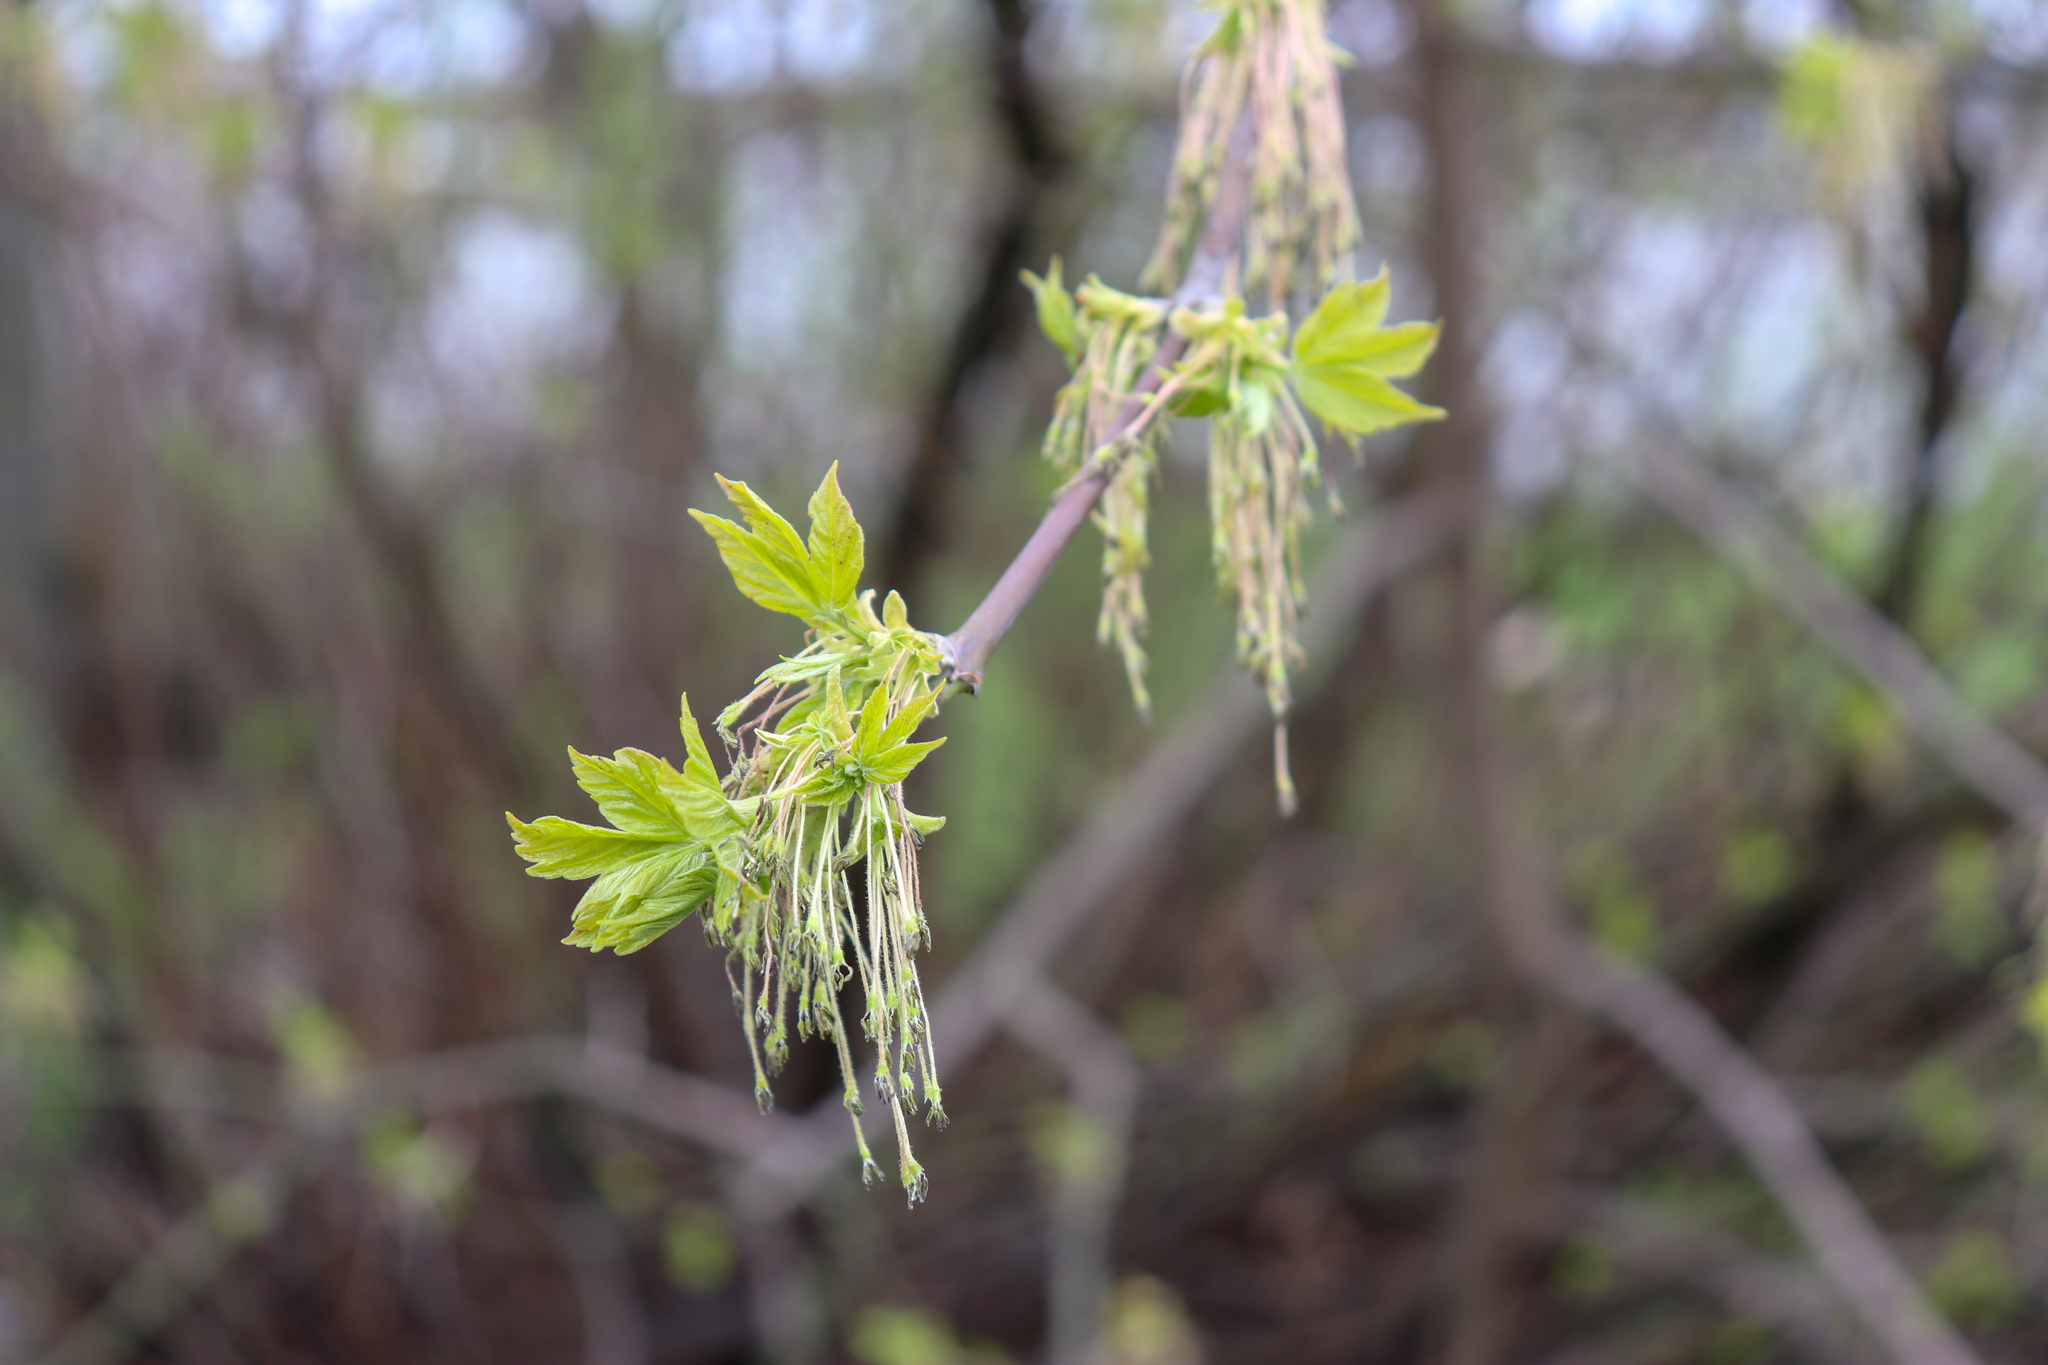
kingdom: Plantae
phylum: Tracheophyta
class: Magnoliopsida
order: Sapindales
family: Sapindaceae
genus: Acer
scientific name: Acer negundo
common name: Ashleaf maple
